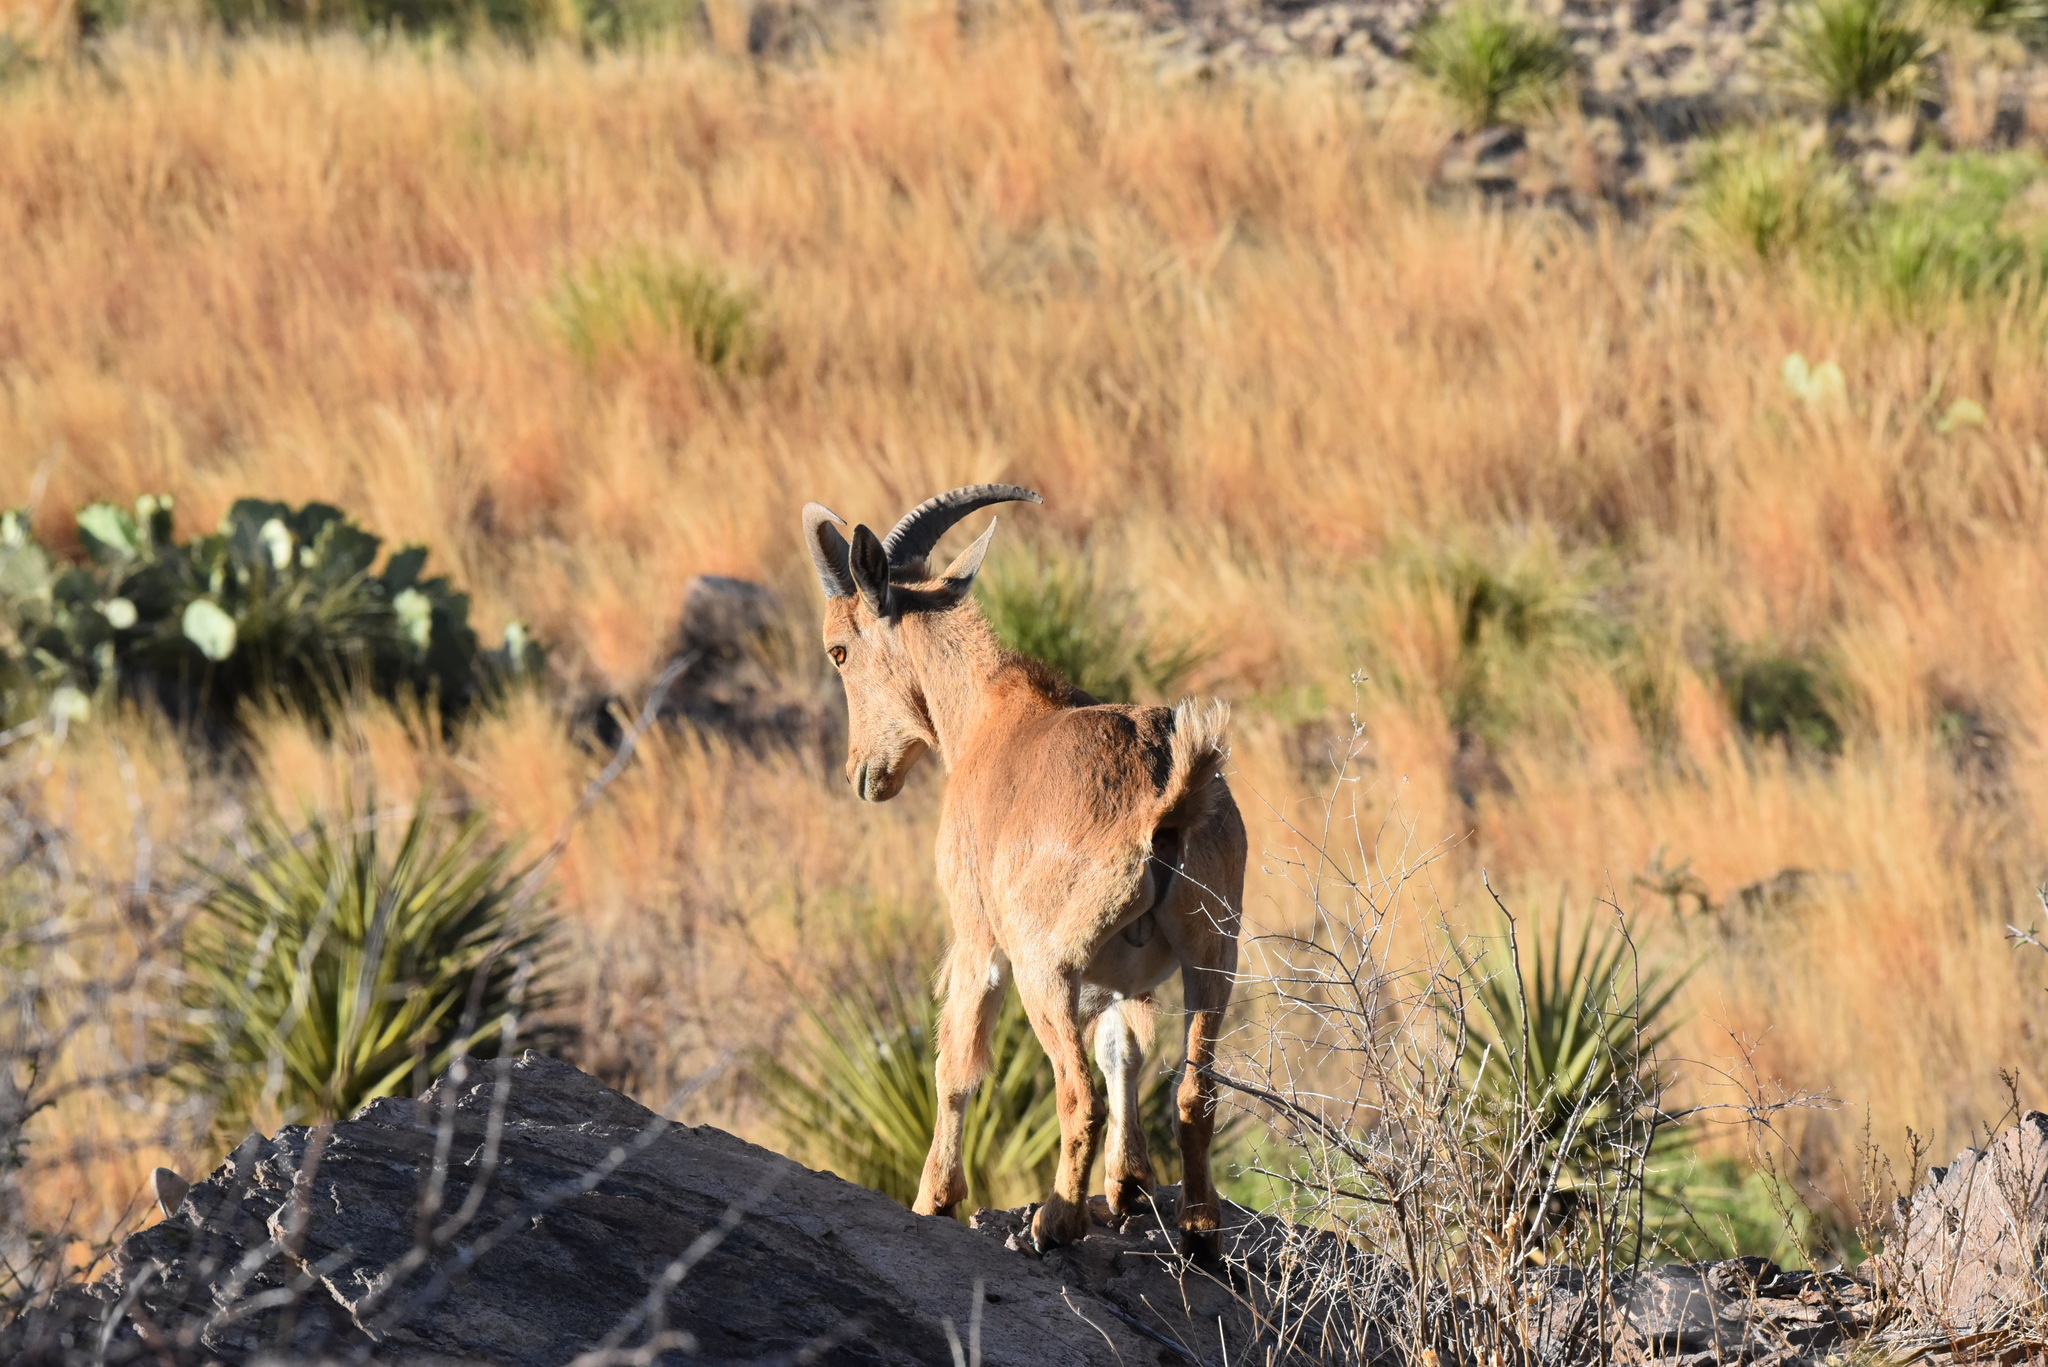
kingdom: Animalia
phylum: Chordata
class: Mammalia
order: Artiodactyla
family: Bovidae
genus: Ammotragus
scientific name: Ammotragus lervia
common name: Barbary sheep
